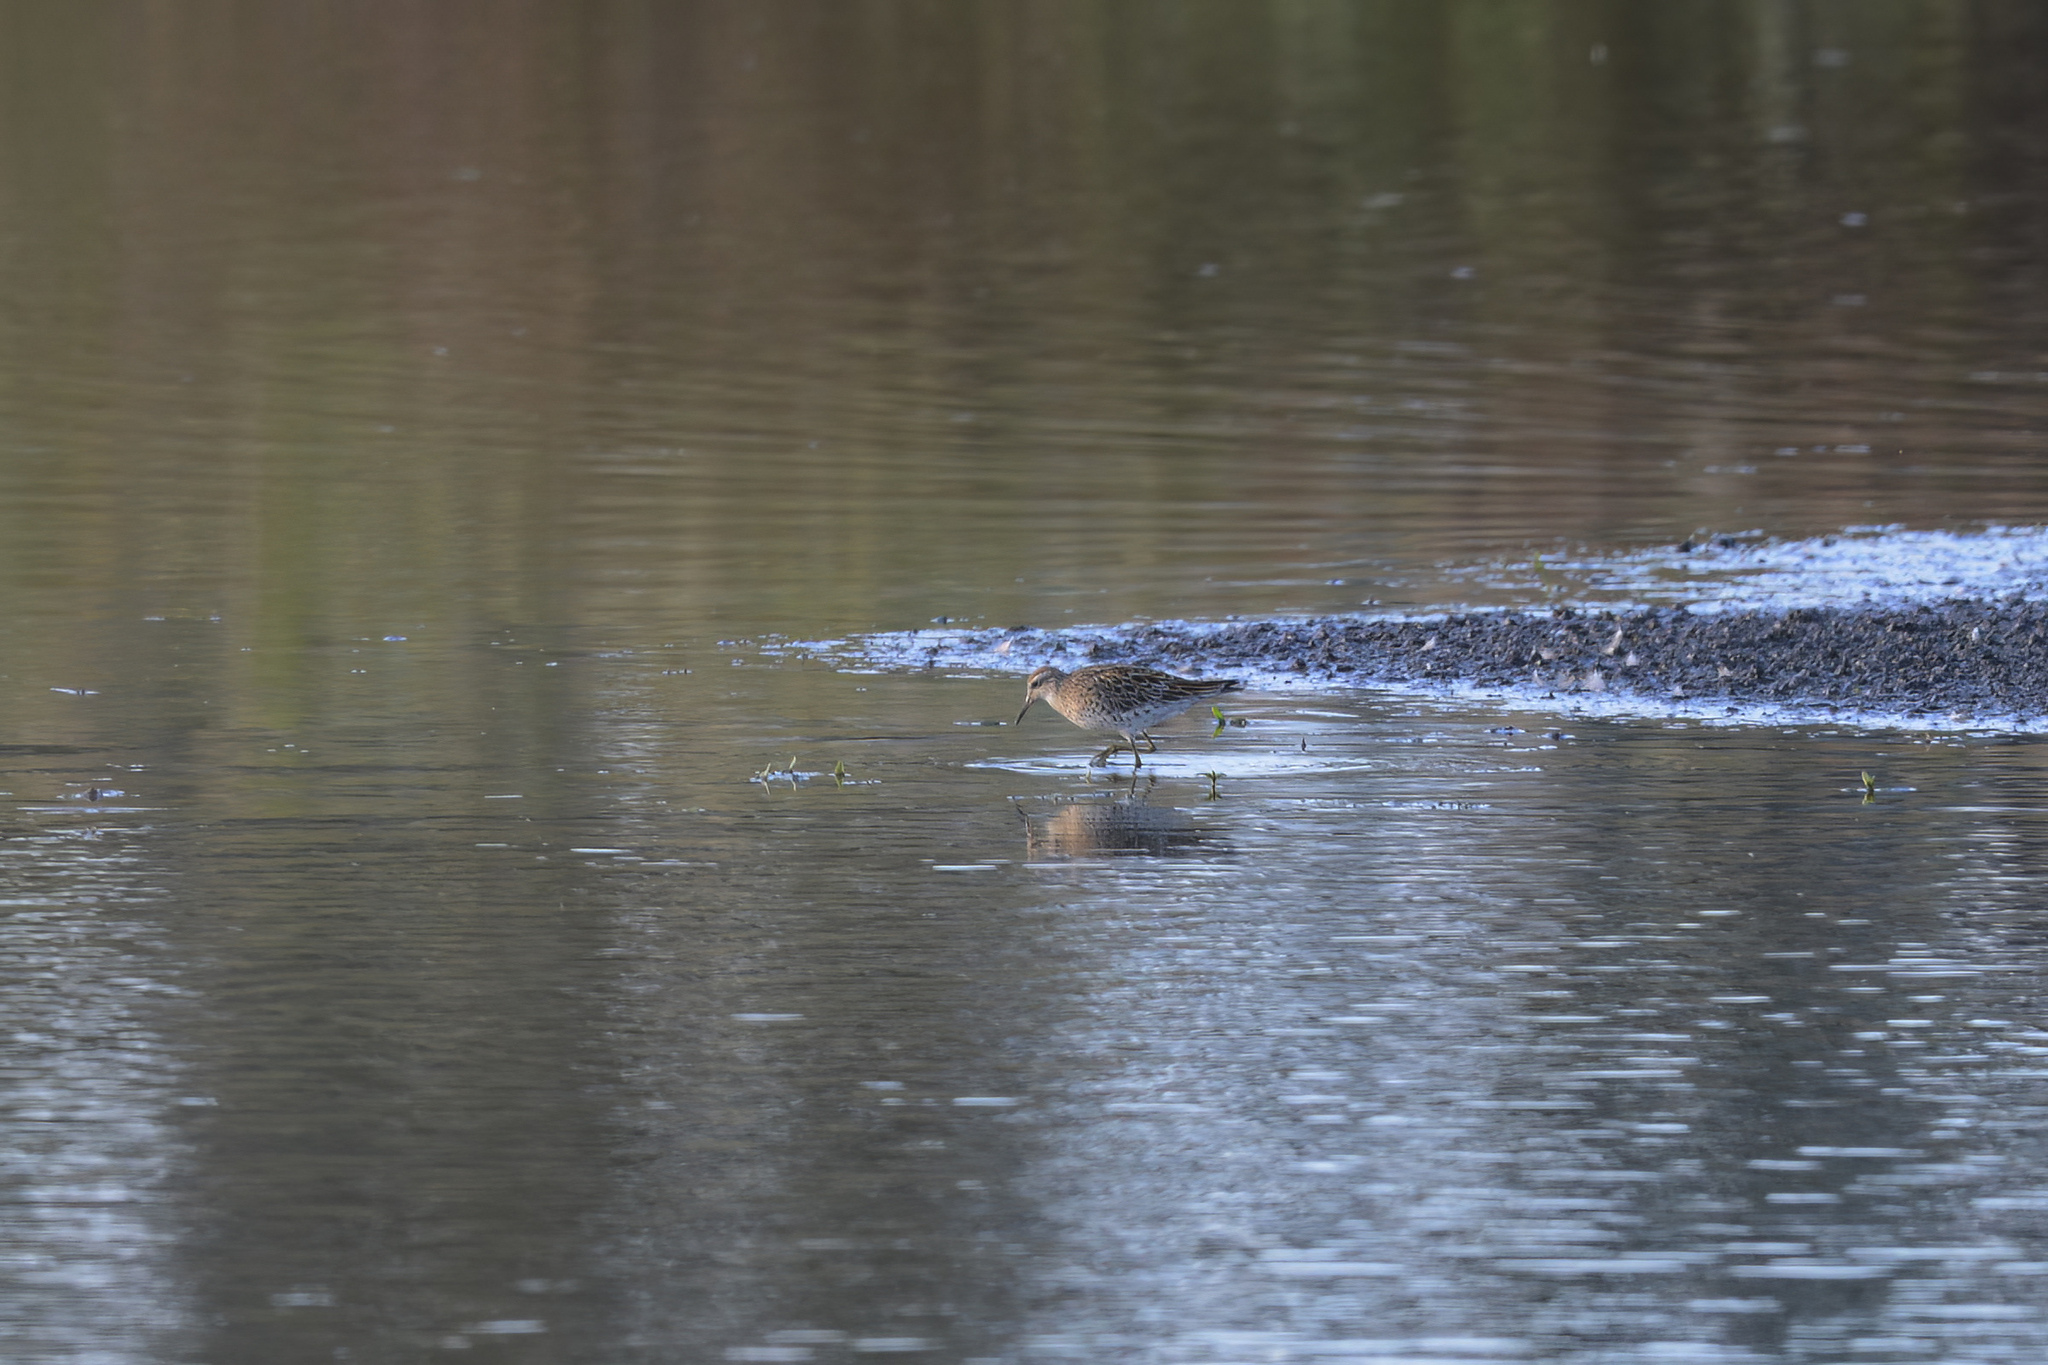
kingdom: Animalia
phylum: Chordata
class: Aves
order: Charadriiformes
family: Scolopacidae
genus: Calidris
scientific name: Calidris acuminata
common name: Sharp-tailed sandpiper
